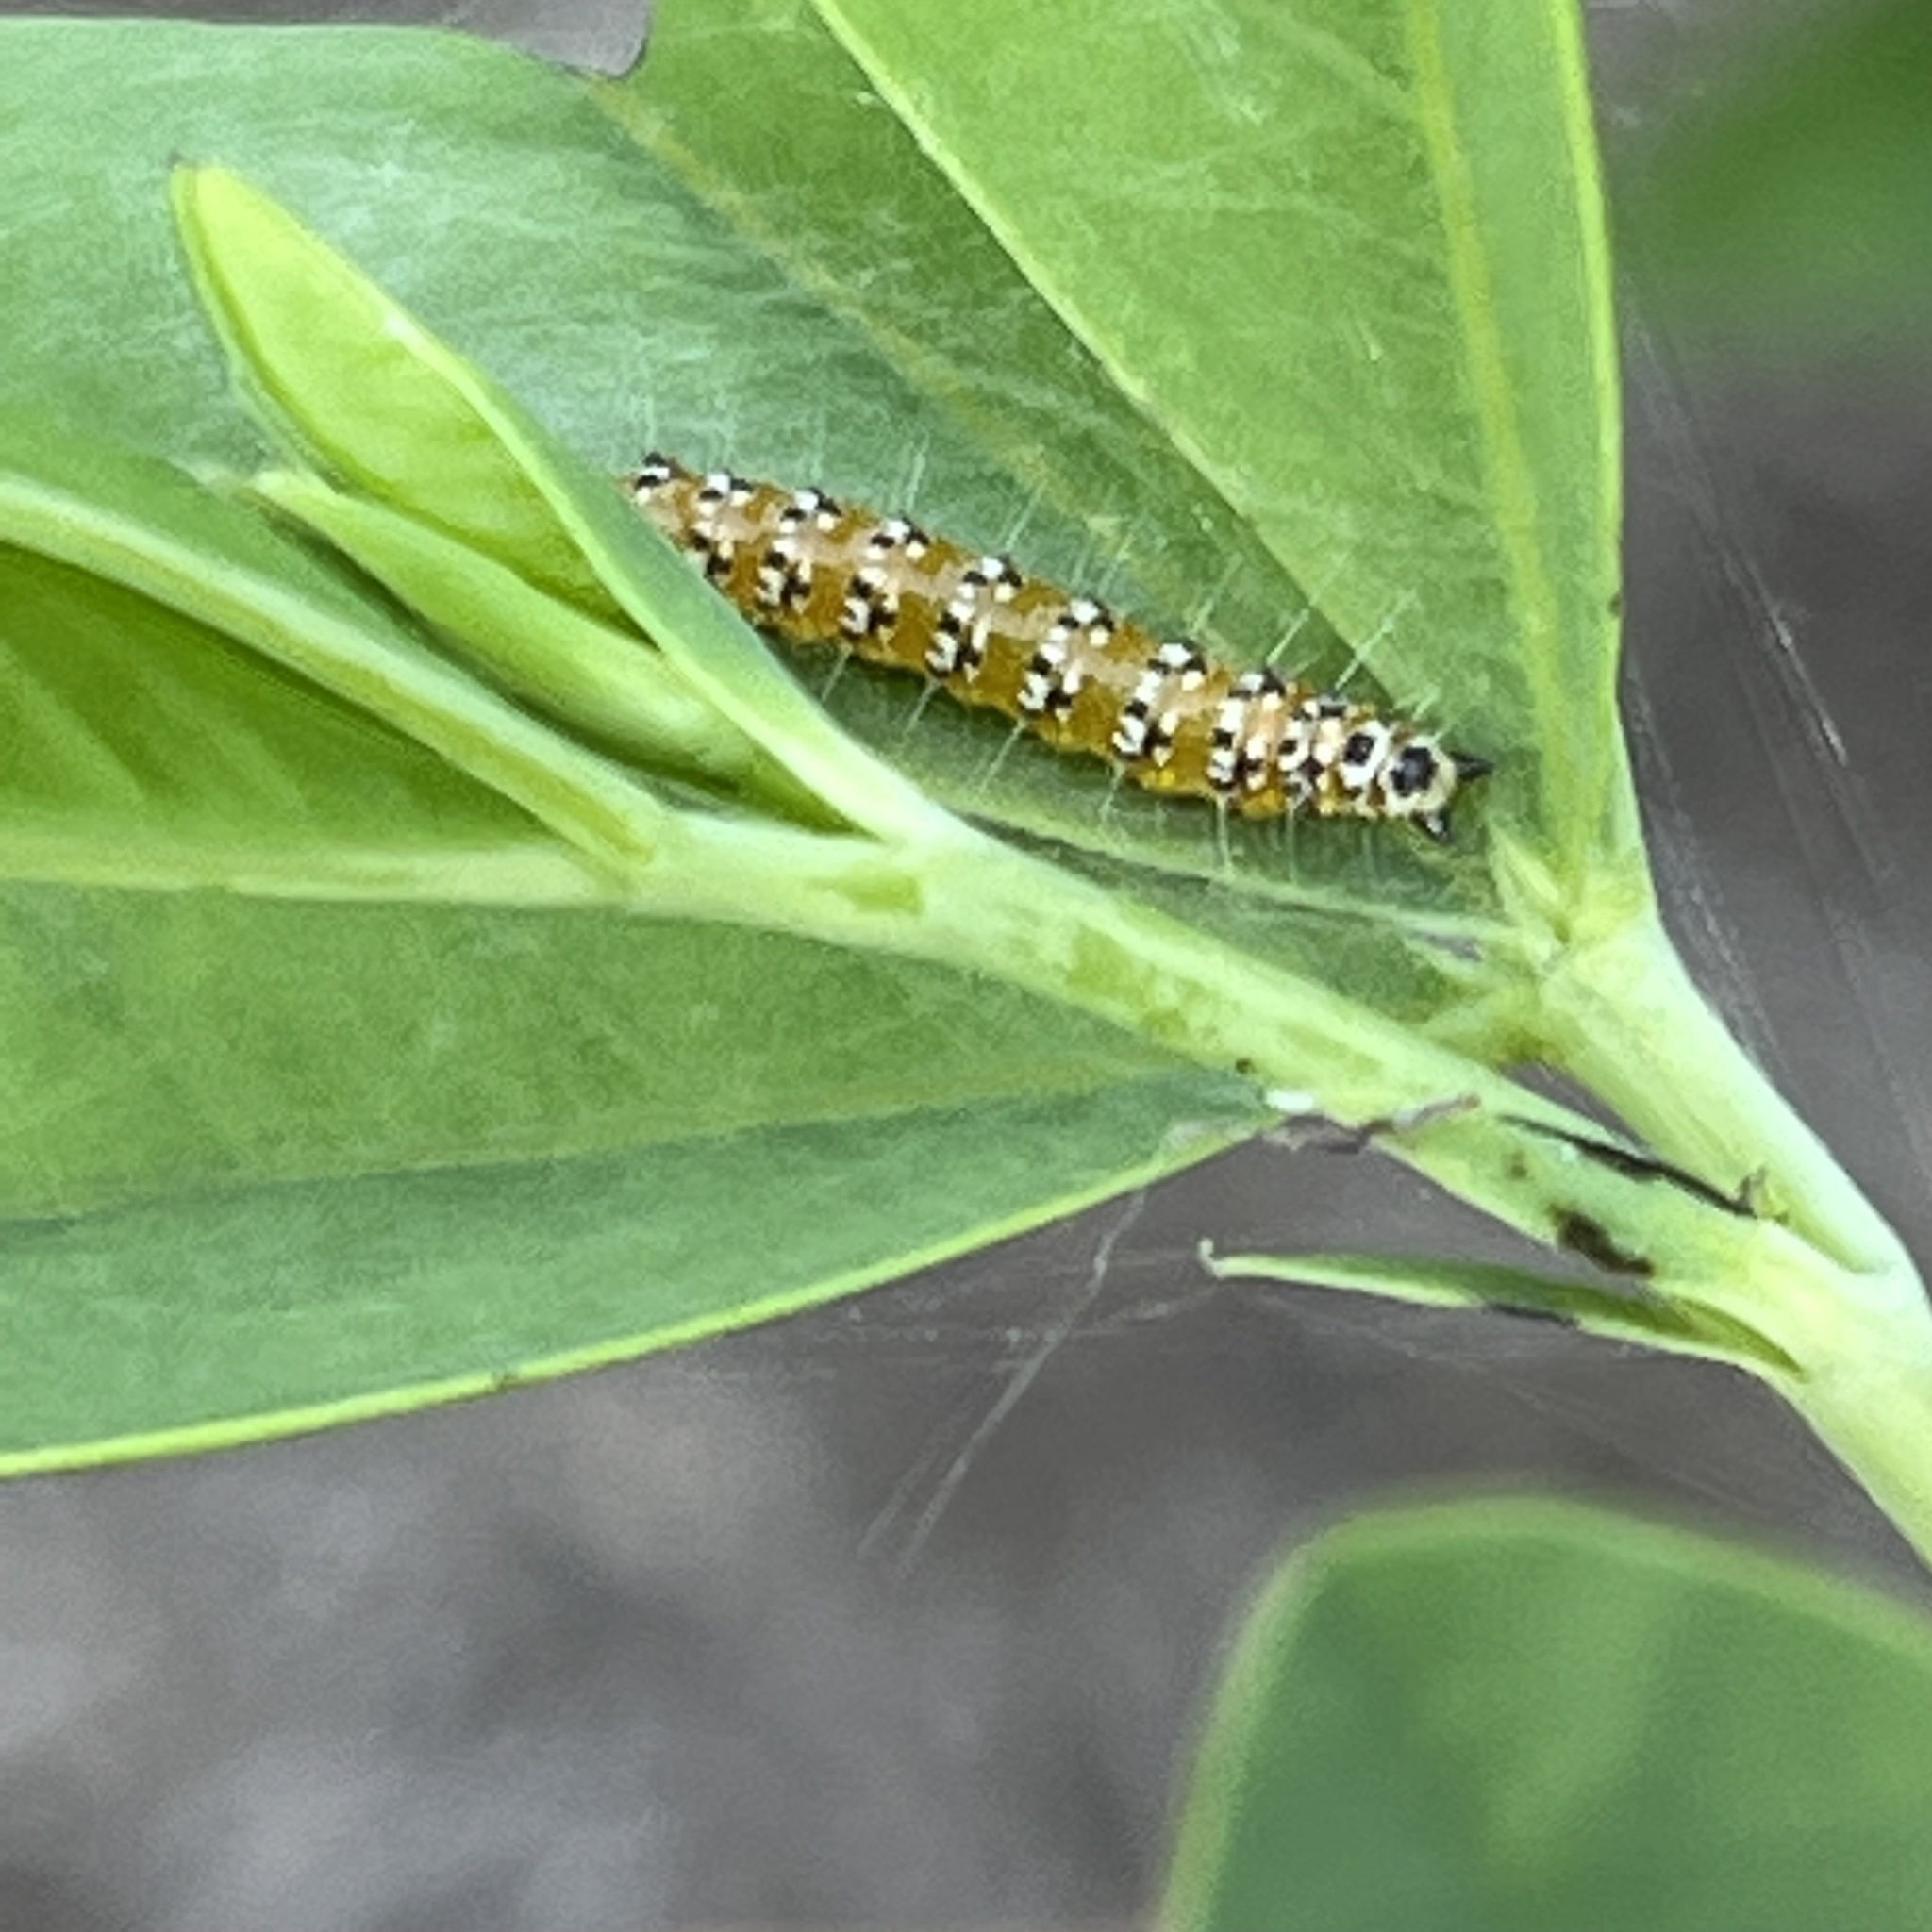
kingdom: Animalia
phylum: Arthropoda
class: Insecta
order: Lepidoptera
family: Crambidae
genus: Uresiphita
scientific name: Uresiphita reversalis
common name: Genista broom moth
